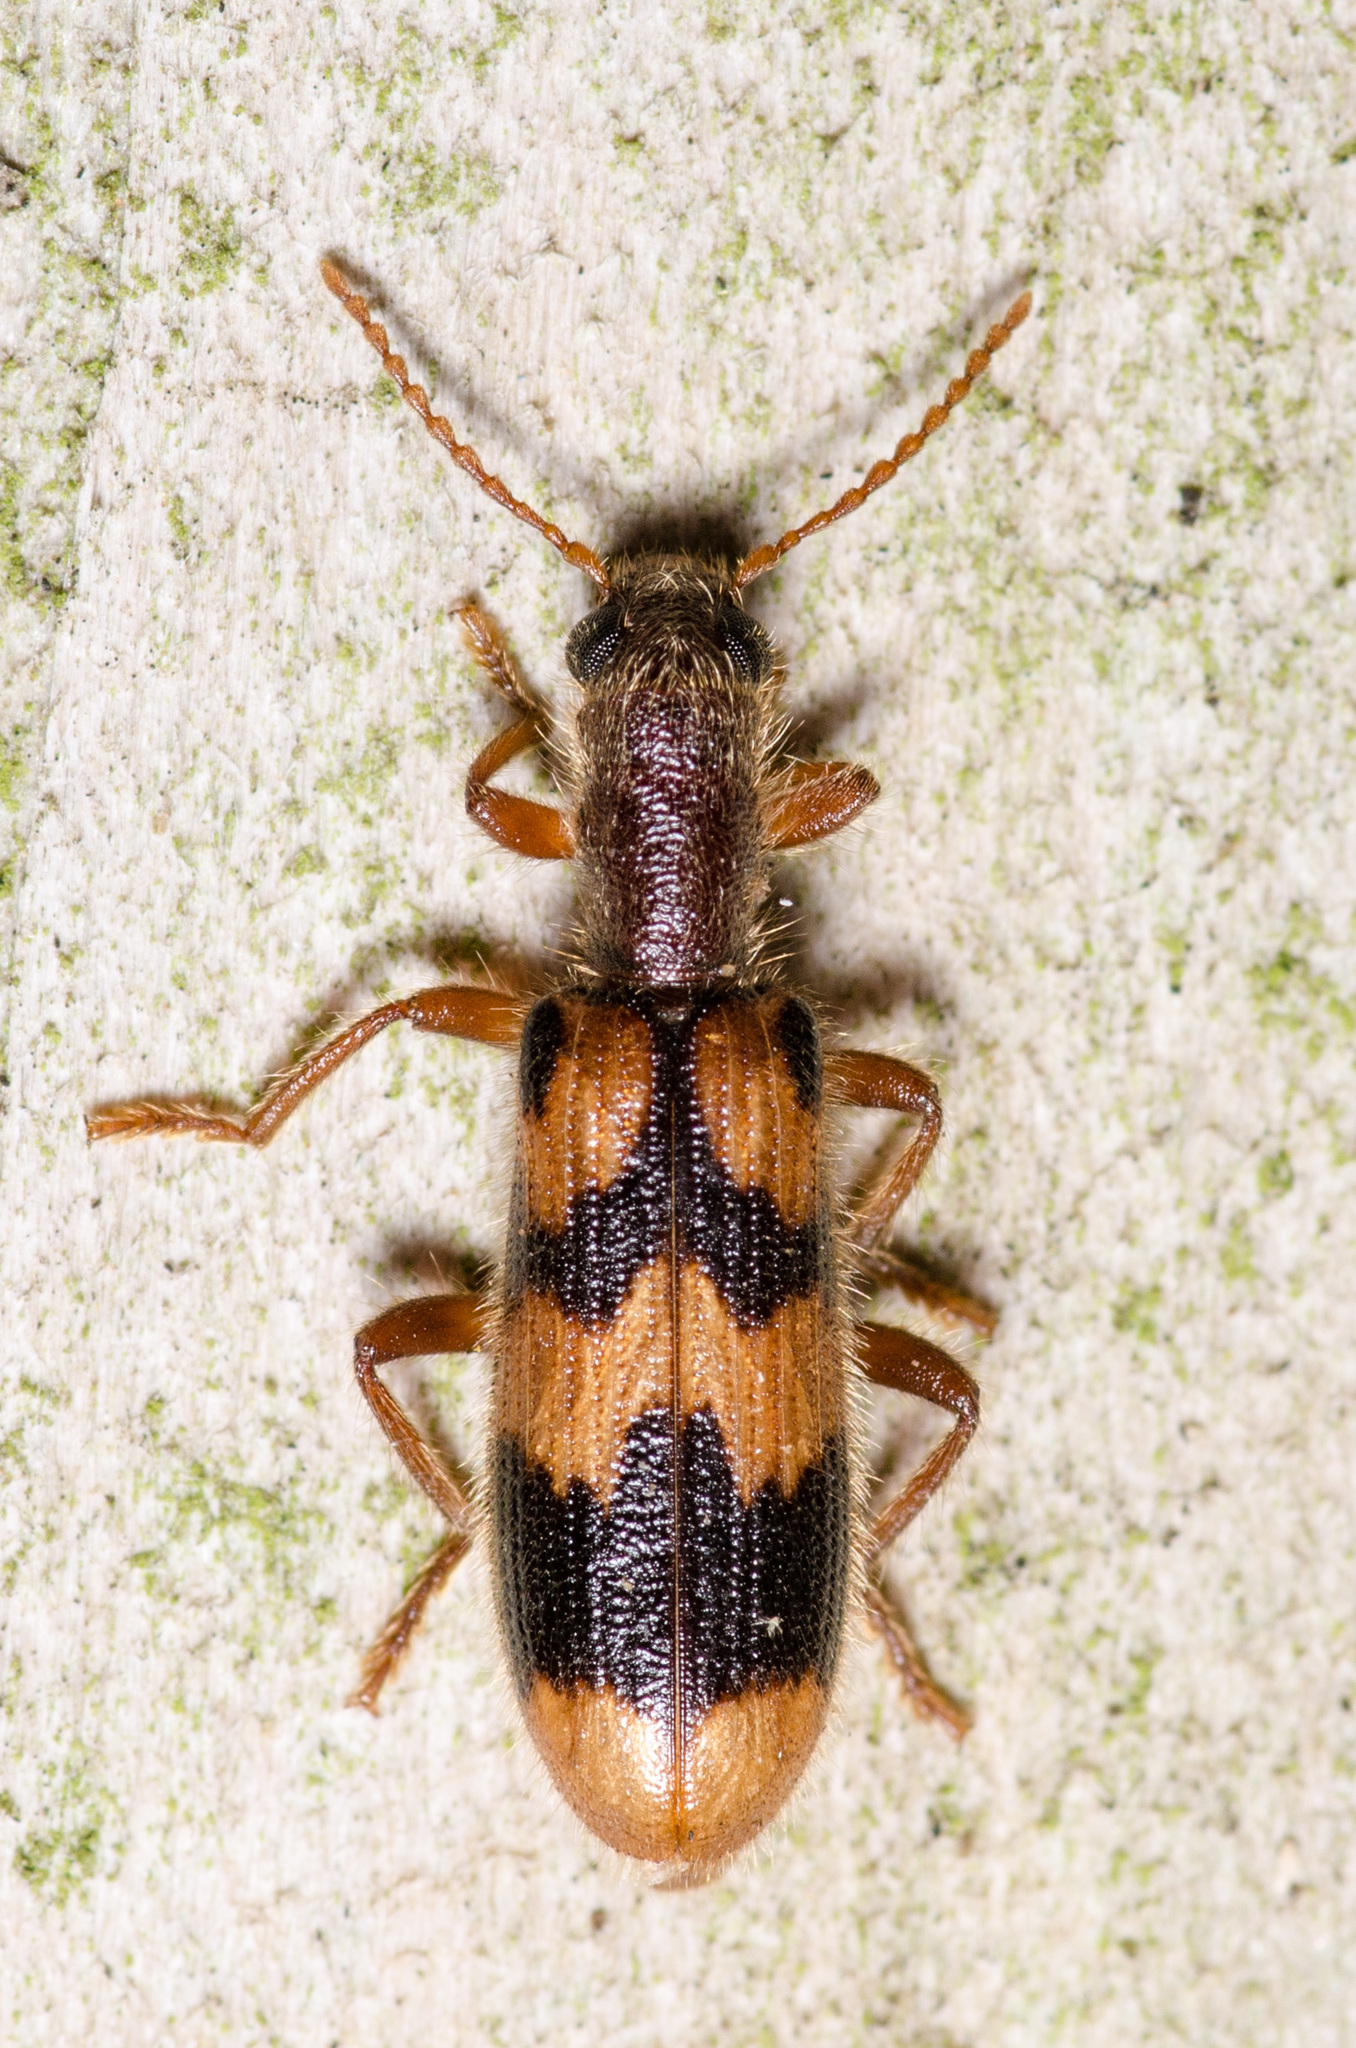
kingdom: Animalia
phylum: Arthropoda
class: Insecta
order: Coleoptera
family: Cleridae
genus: Cymatodera
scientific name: Cymatodera sirpata
